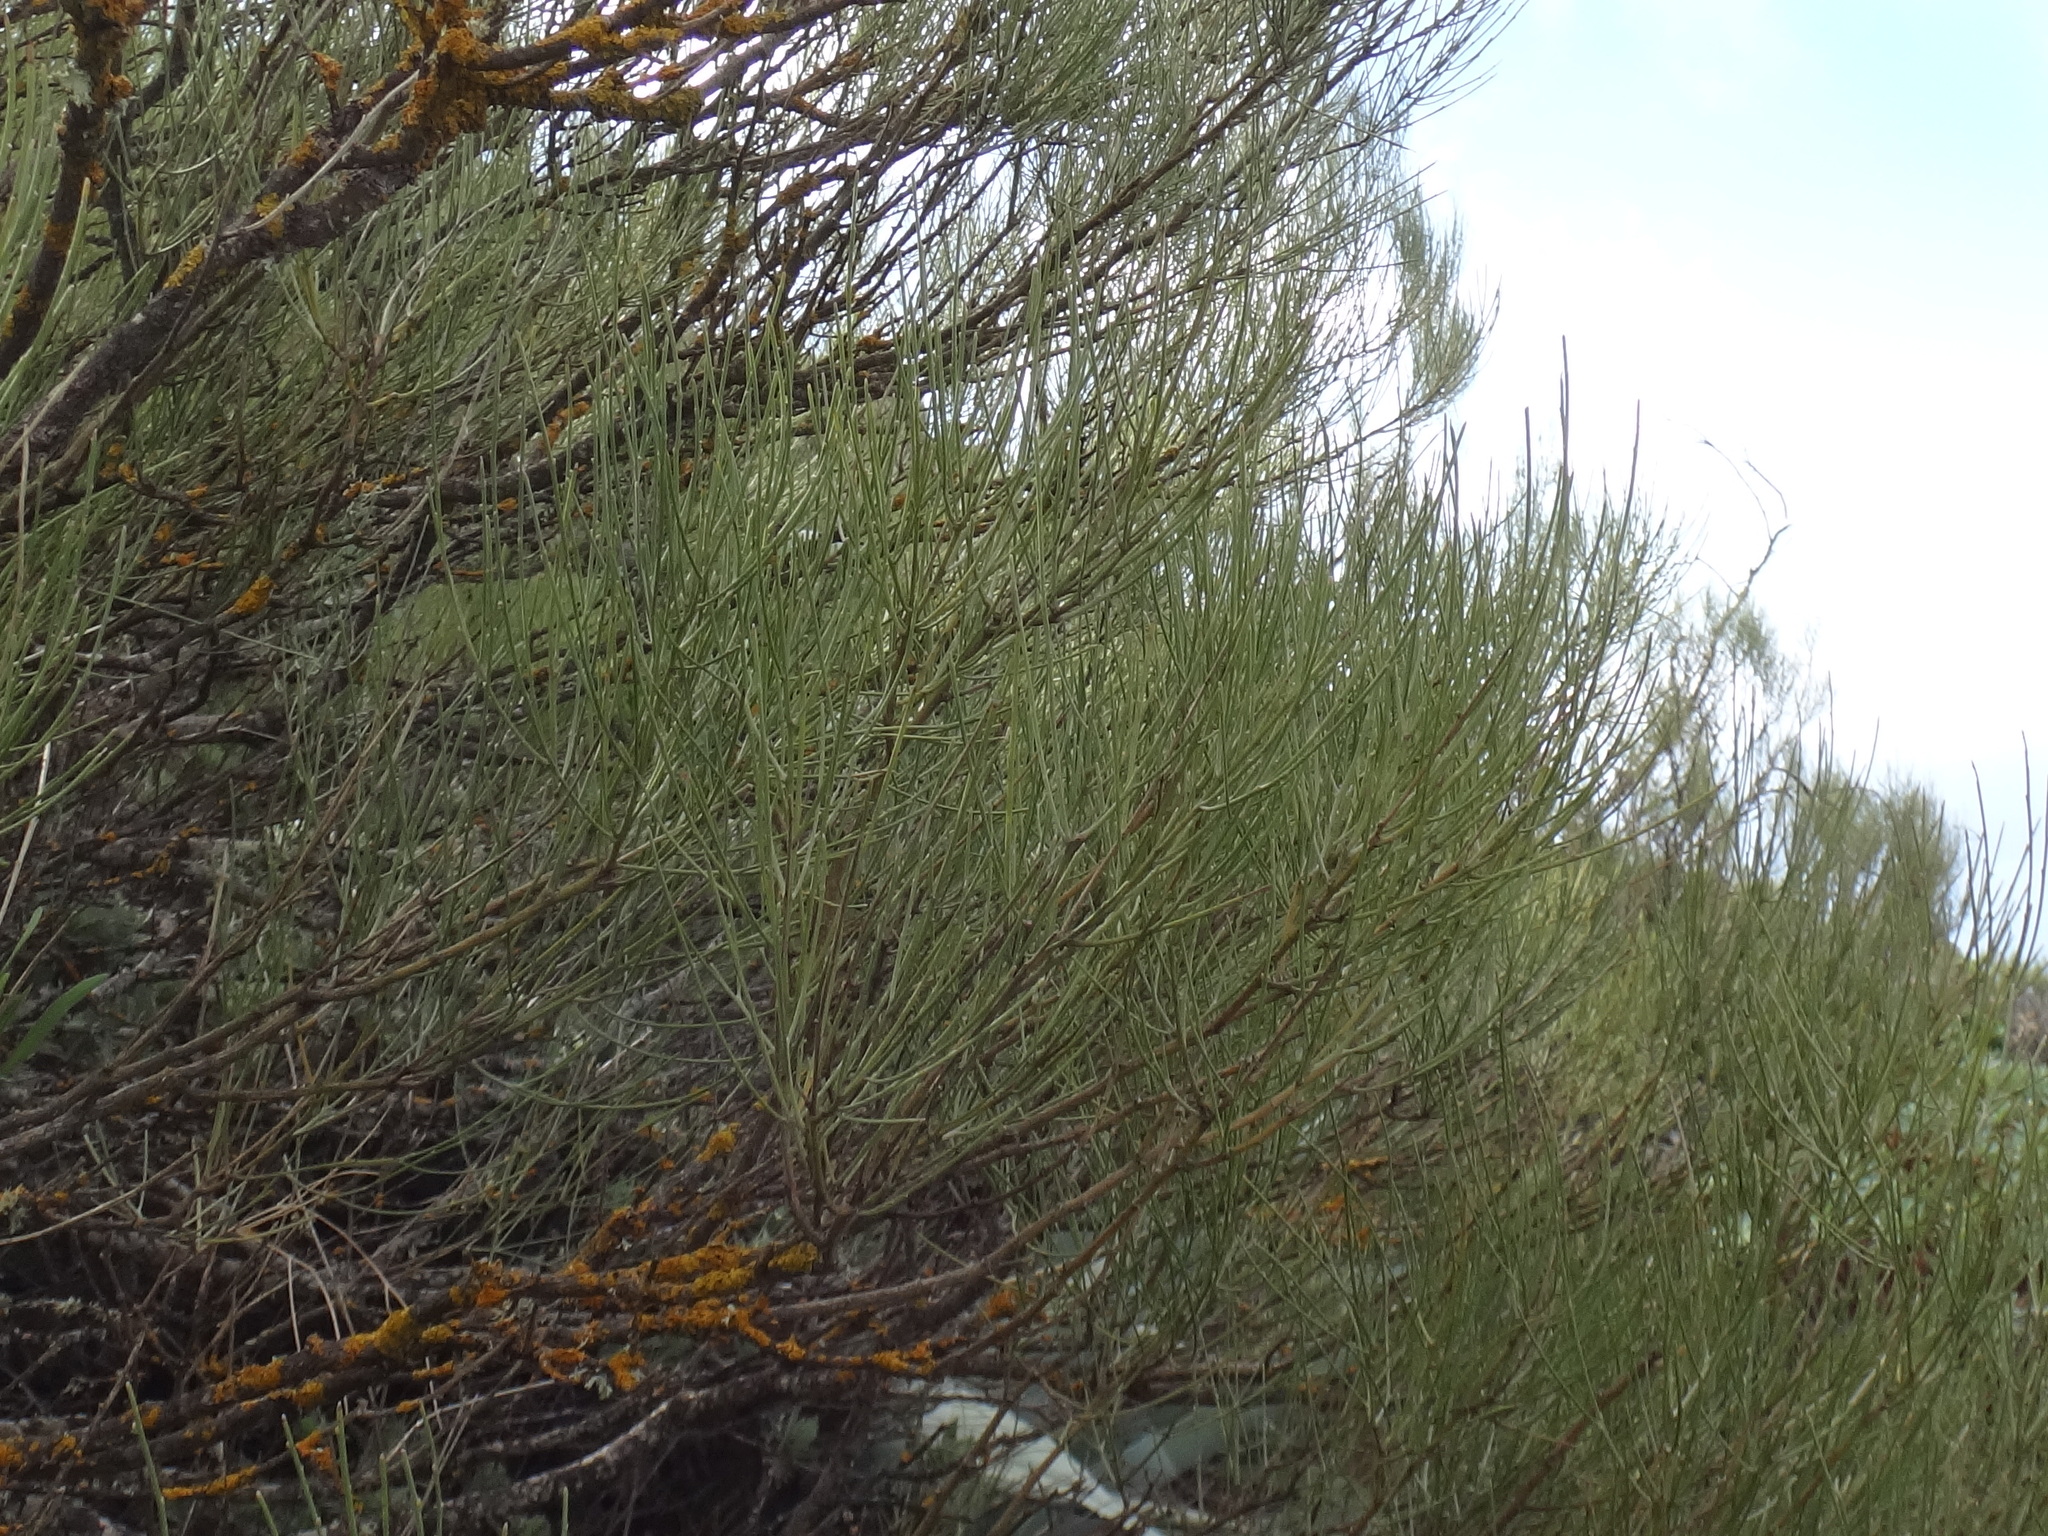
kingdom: Plantae
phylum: Tracheophyta
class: Magnoliopsida
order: Fabales
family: Fabaceae
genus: Retama
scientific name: Retama rhodorhizoides
